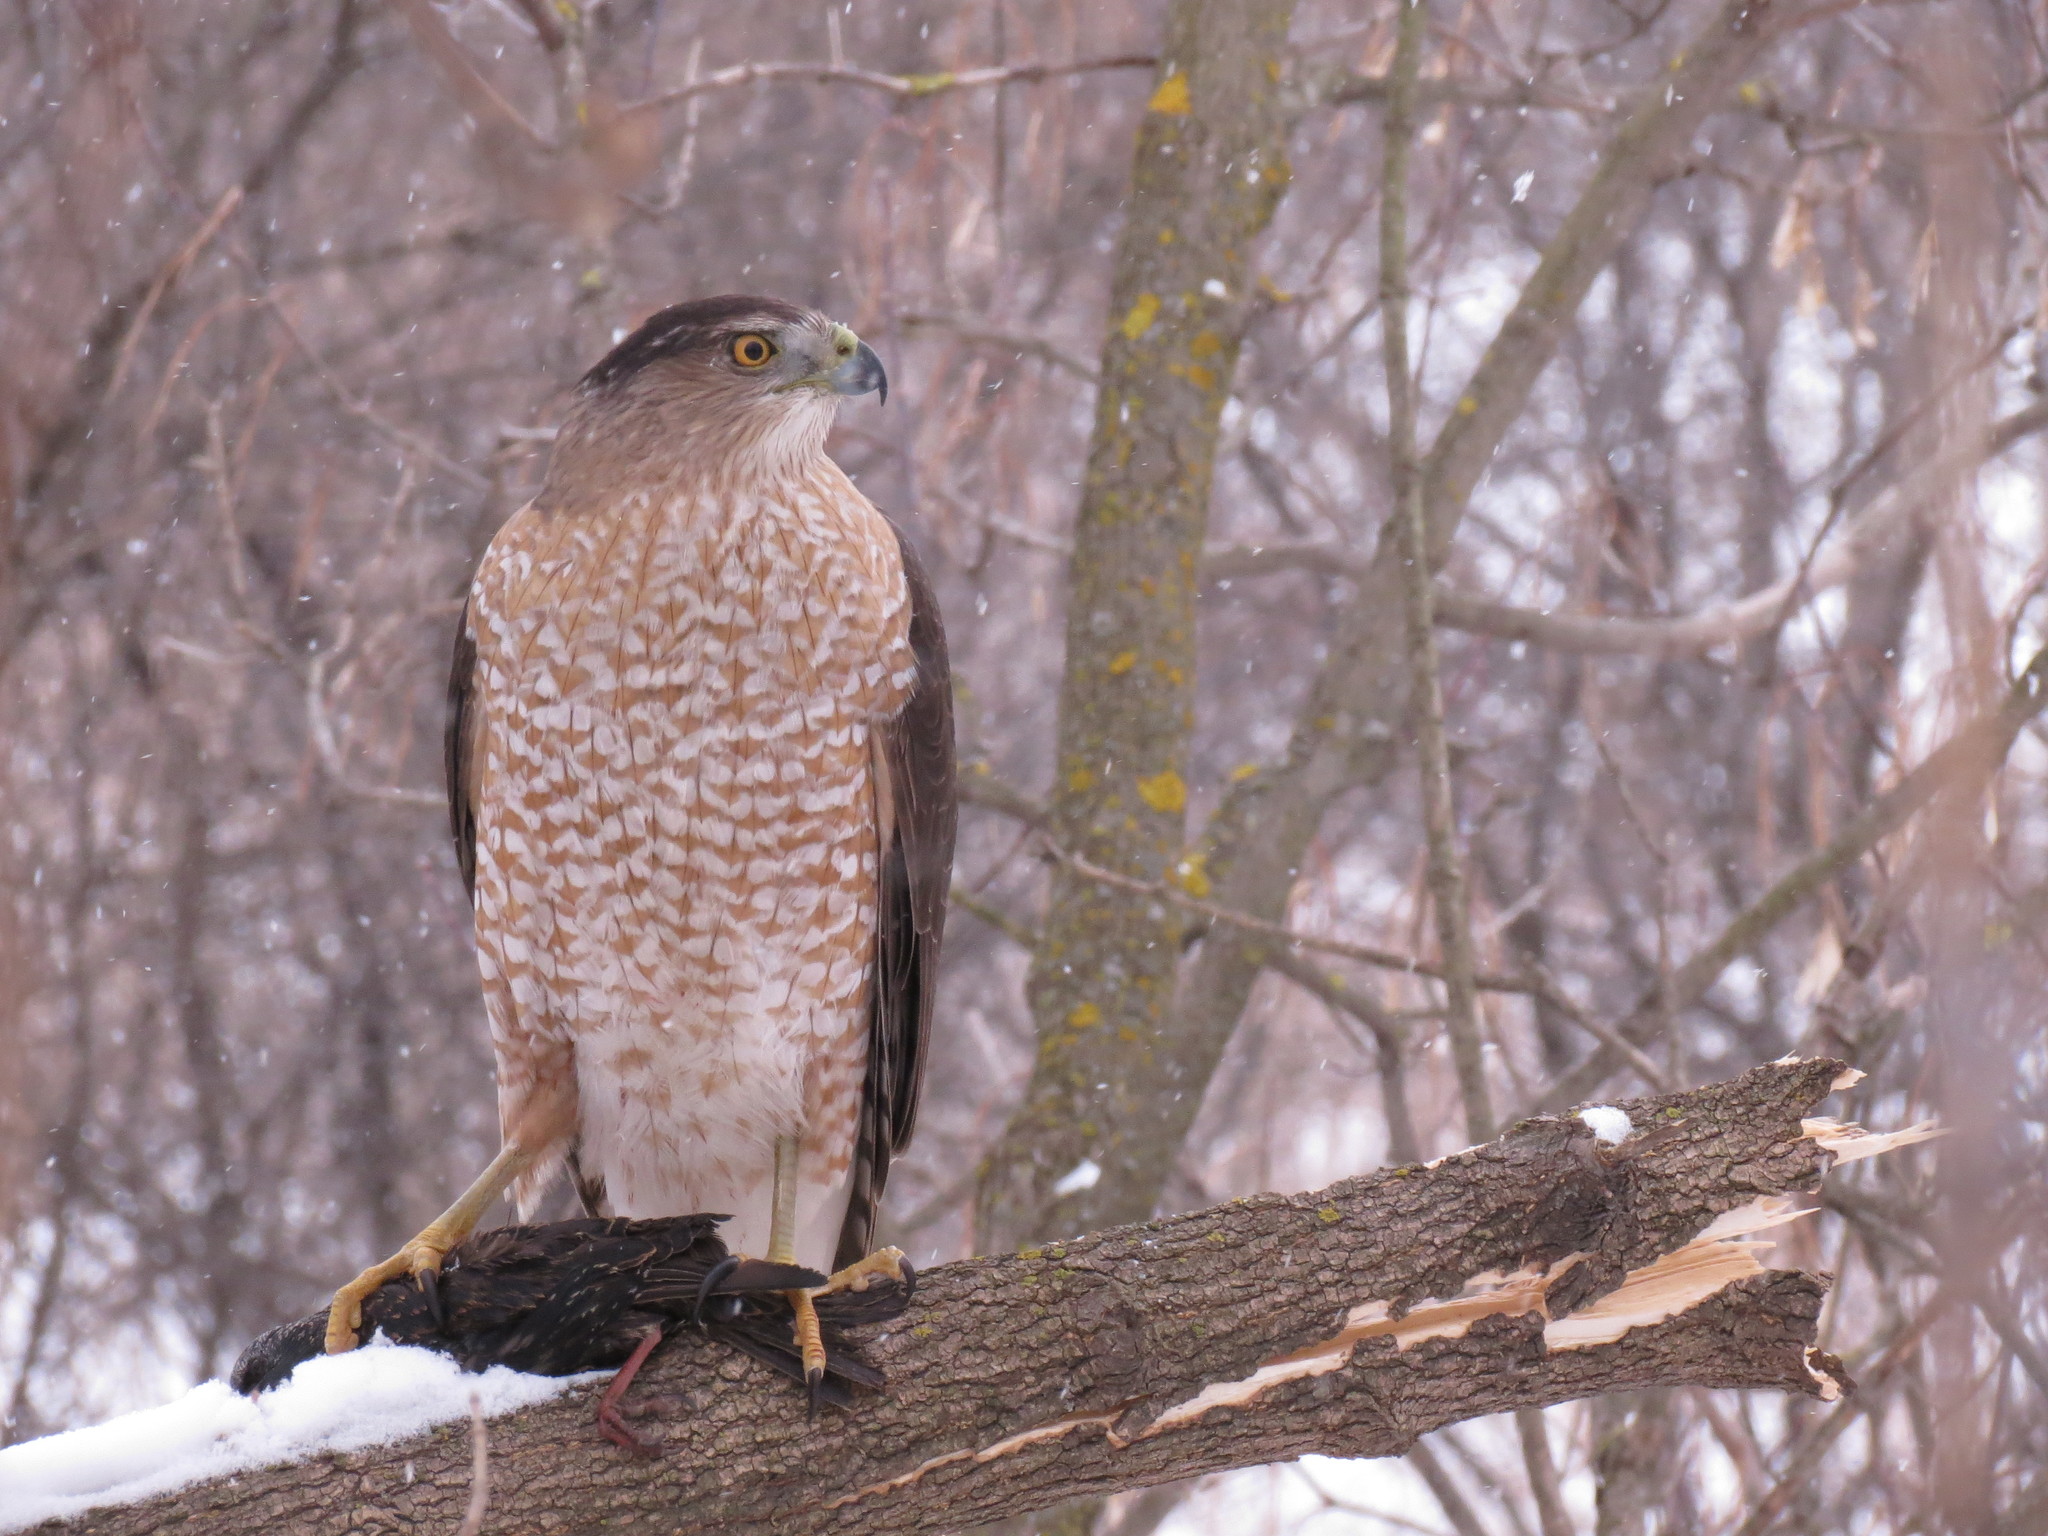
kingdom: Animalia
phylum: Chordata
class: Aves
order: Accipitriformes
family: Accipitridae
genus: Accipiter
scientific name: Accipiter cooperii
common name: Cooper's hawk
